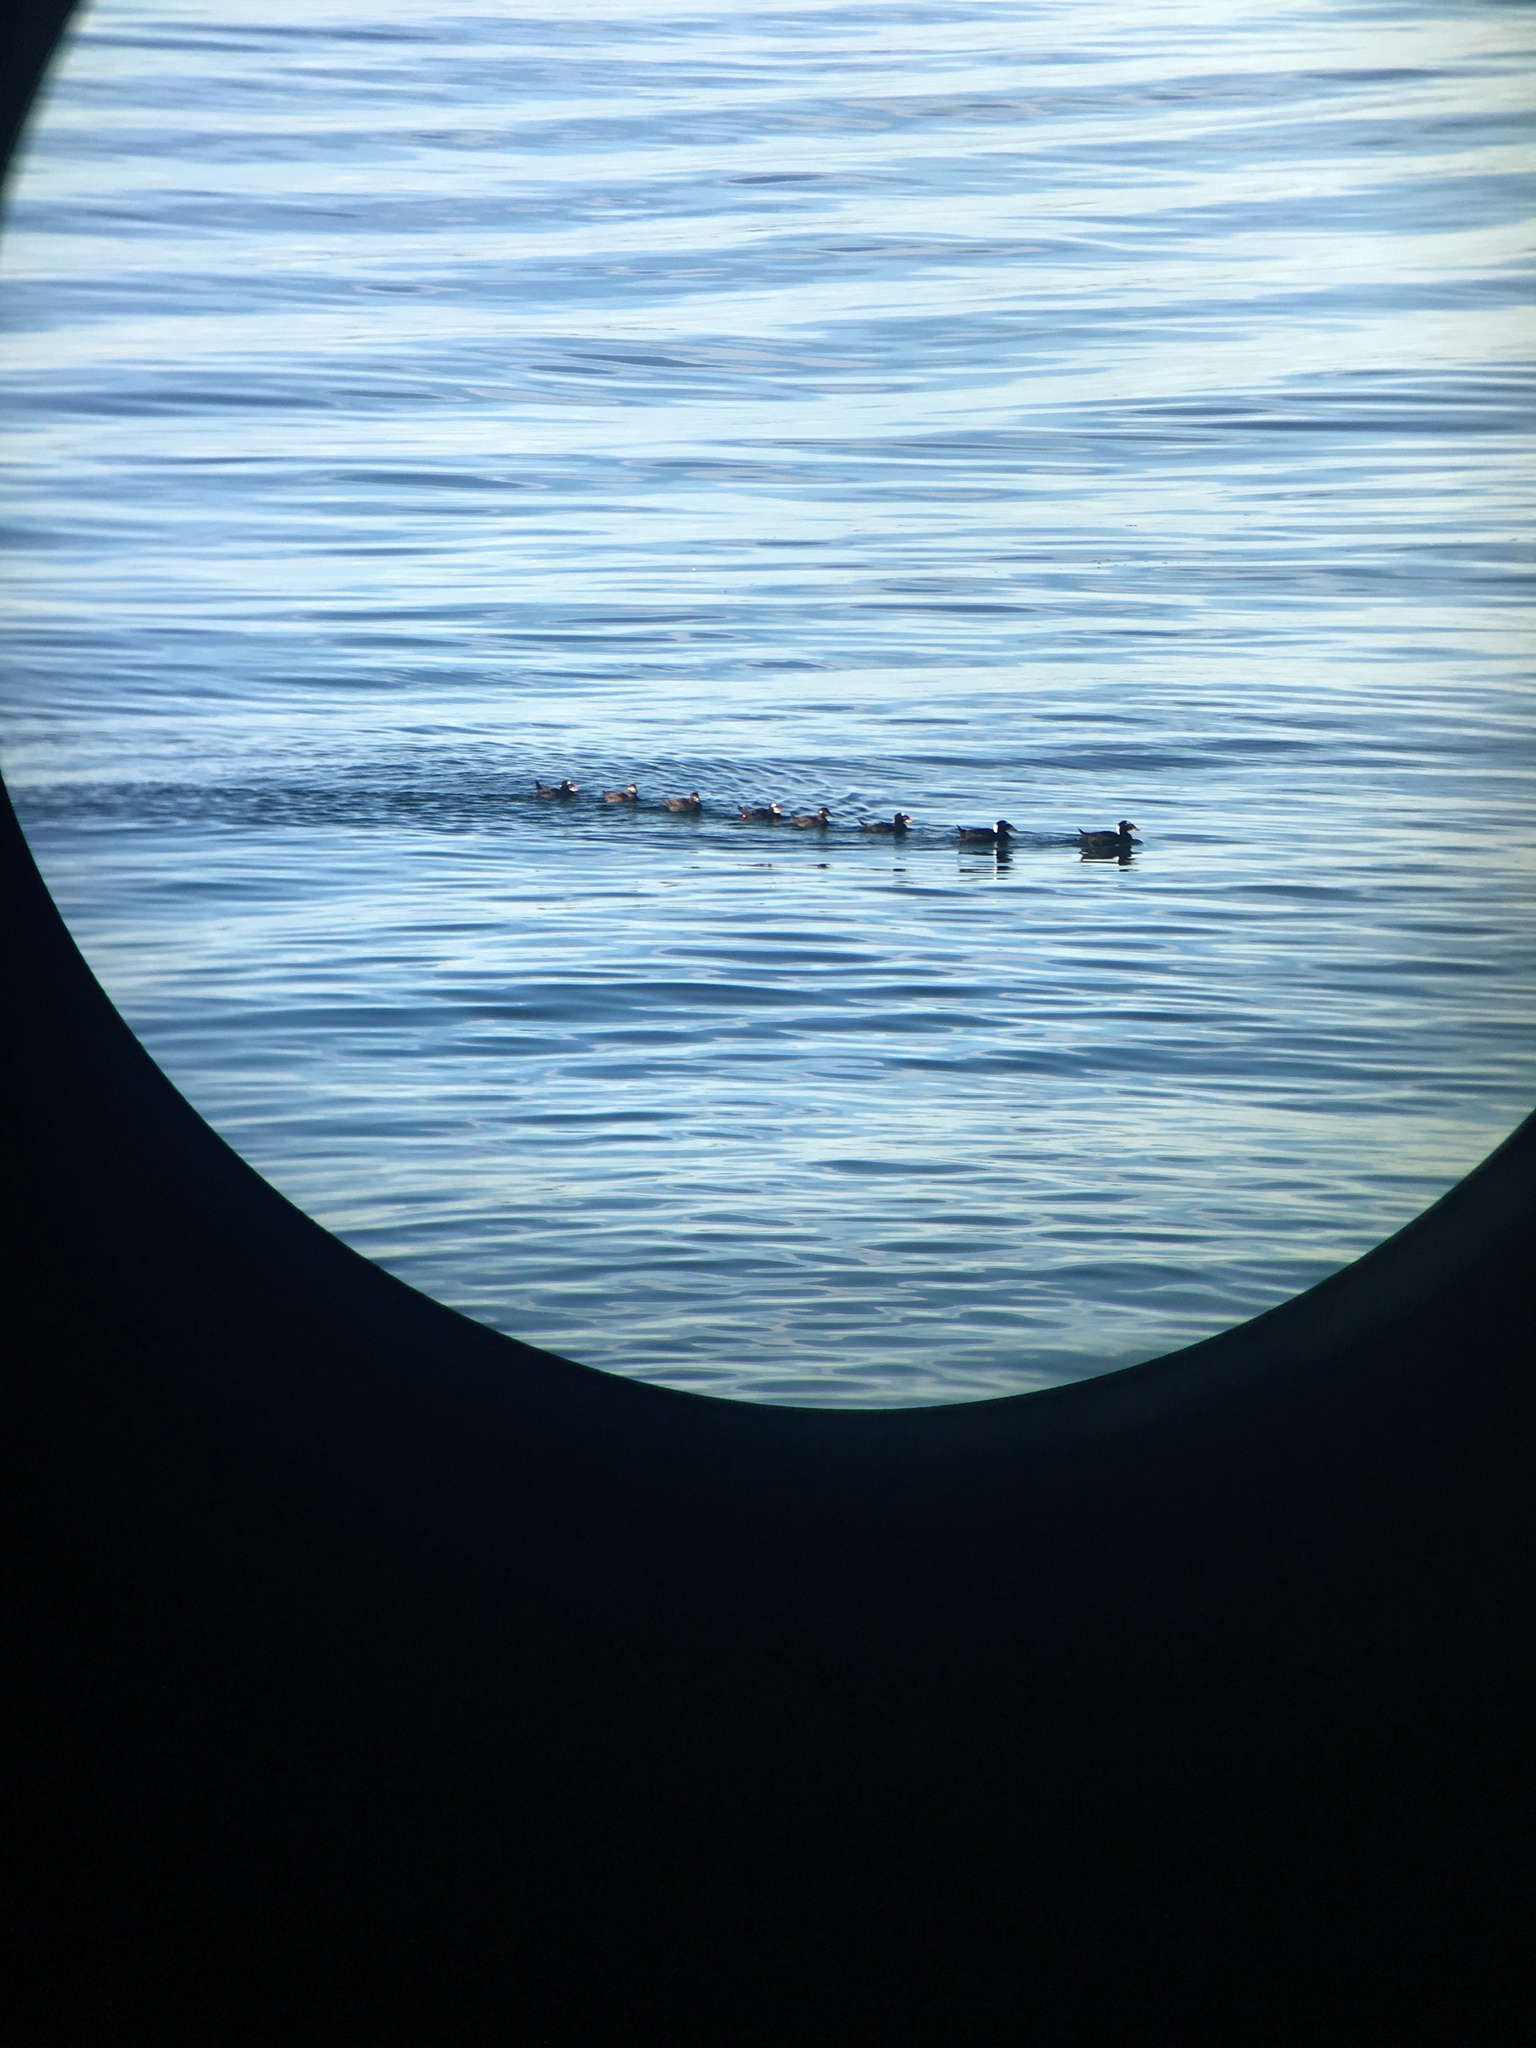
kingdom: Animalia
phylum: Chordata
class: Aves
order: Anseriformes
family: Anatidae
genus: Melanitta
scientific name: Melanitta perspicillata
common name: Surf scoter
